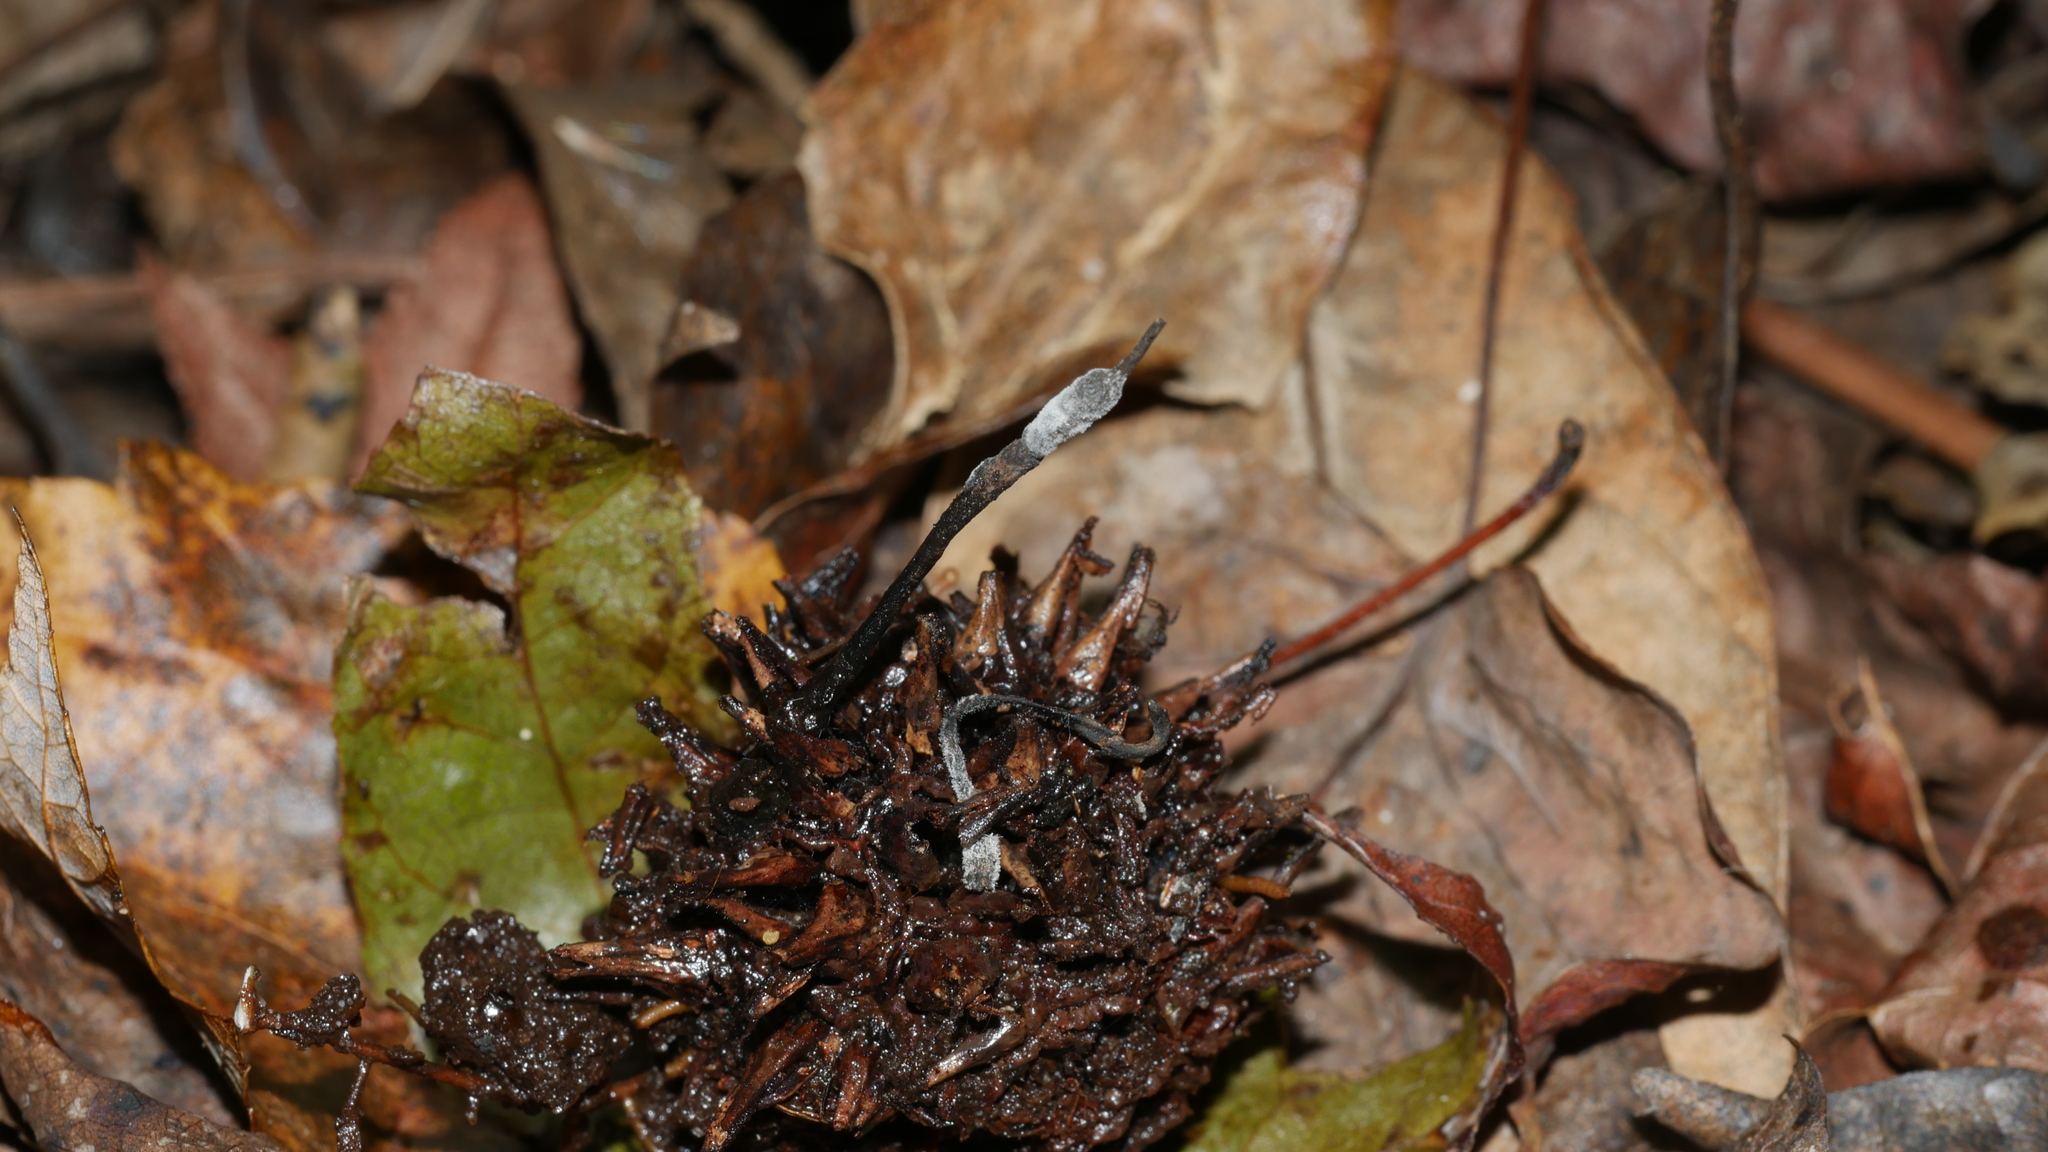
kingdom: Fungi
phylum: Ascomycota
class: Sordariomycetes
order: Xylariales
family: Xylariaceae
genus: Xylaria
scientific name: Xylaria liquidambaris
